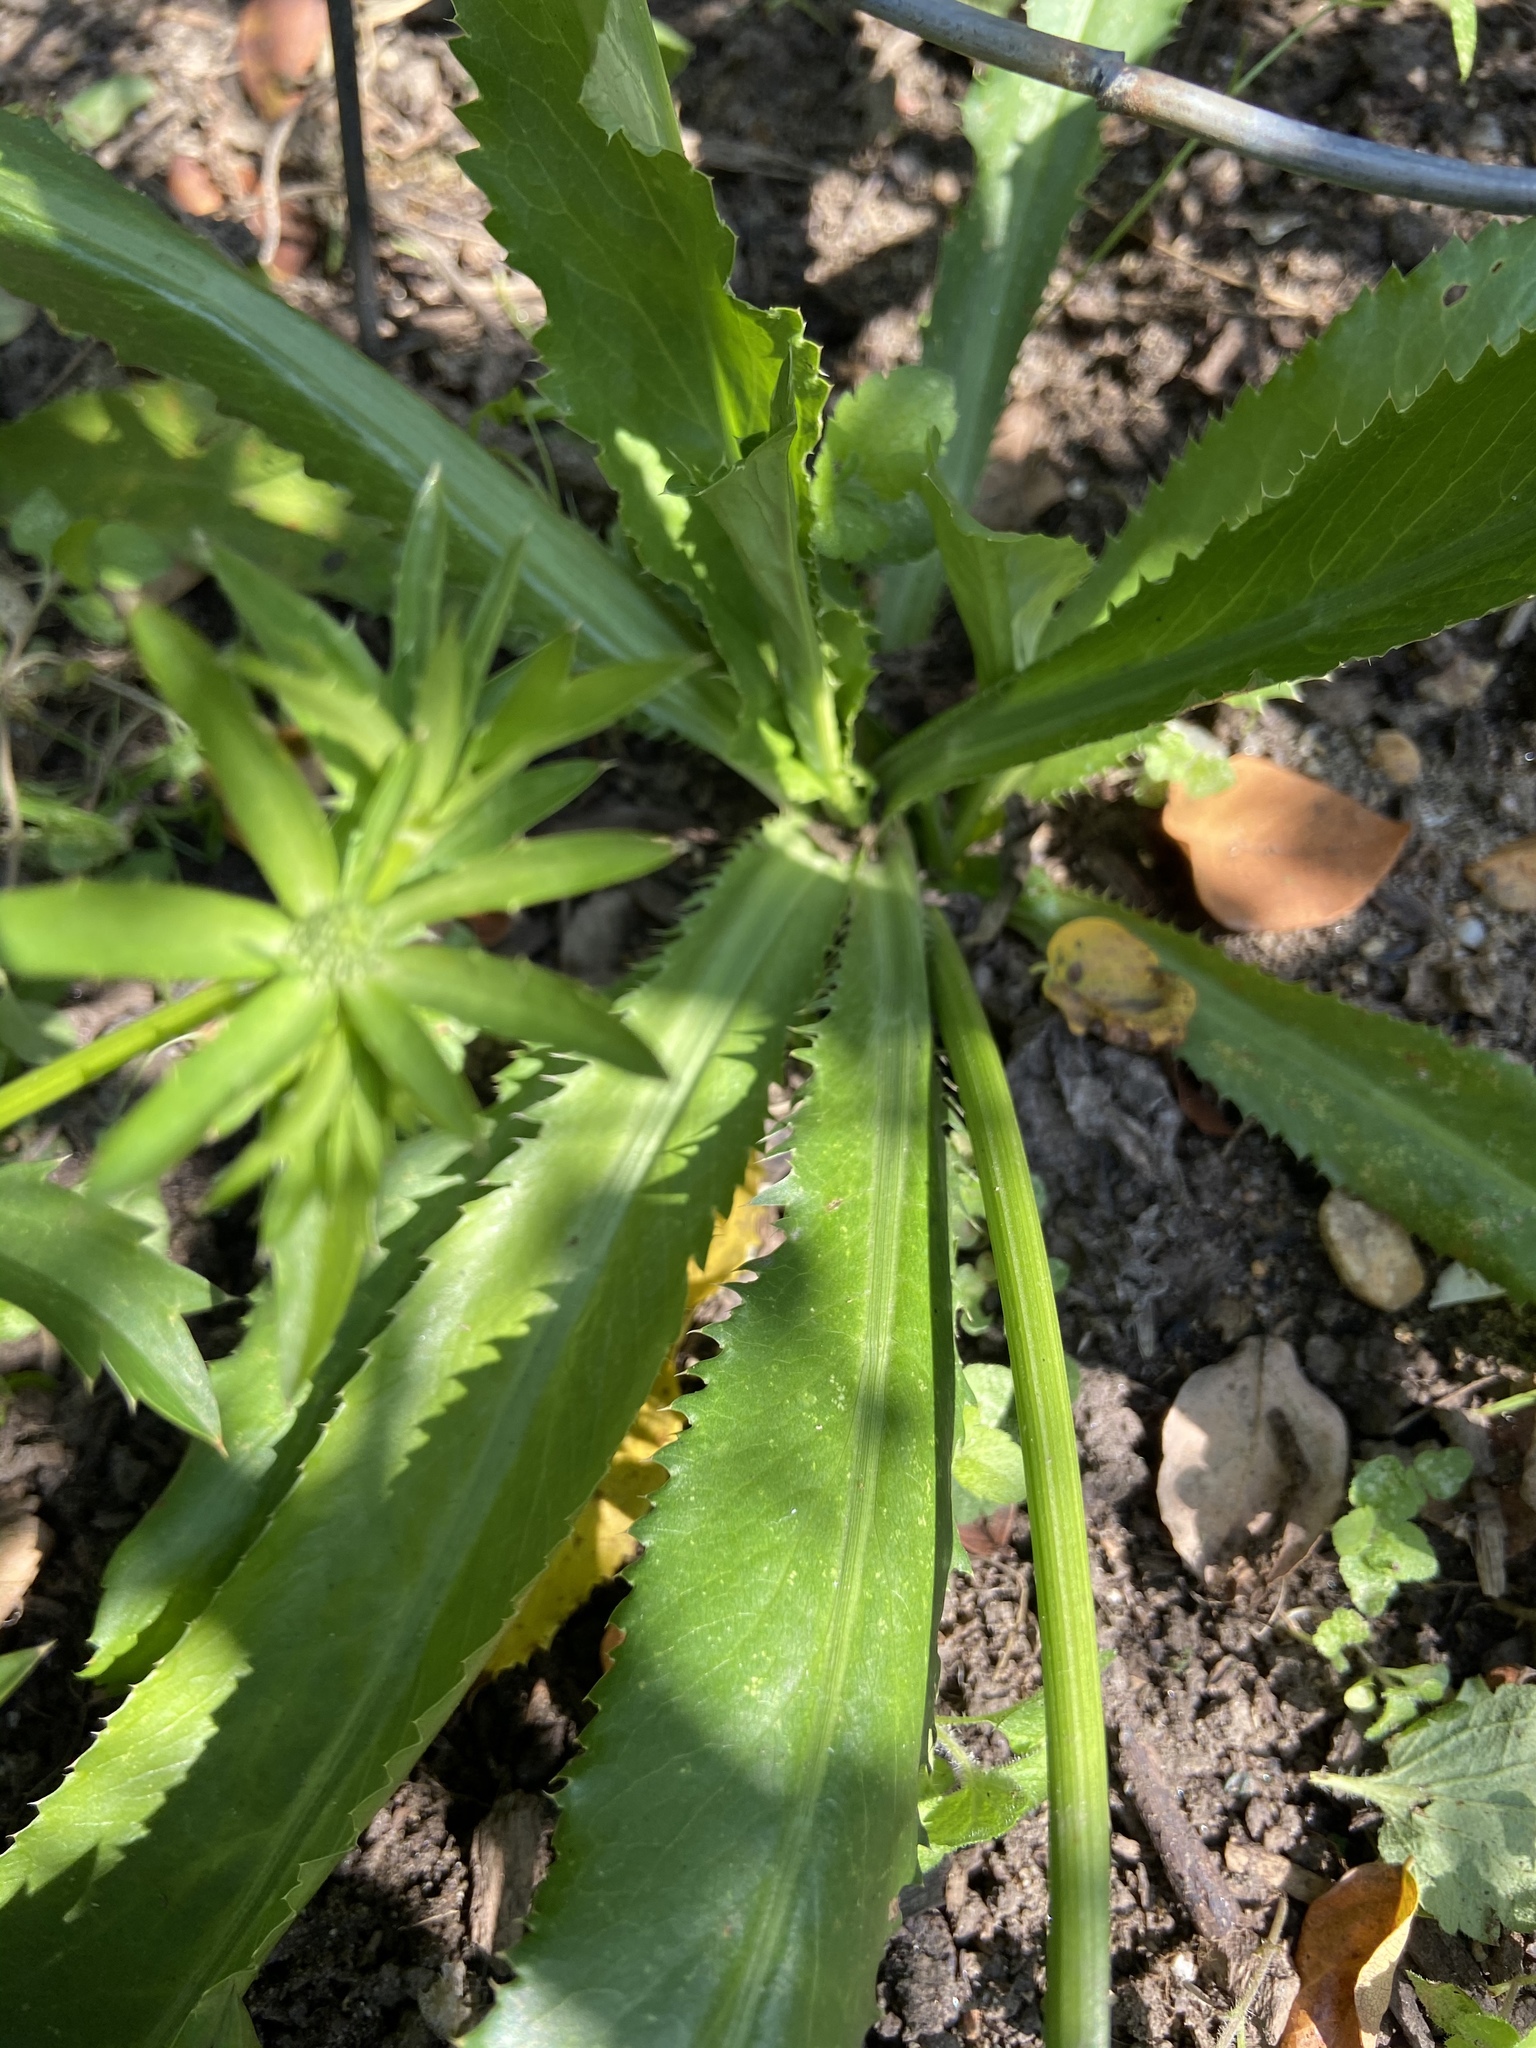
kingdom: Plantae
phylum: Tracheophyta
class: Magnoliopsida
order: Apiales
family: Apiaceae
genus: Eryngium
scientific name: Eryngium foetidum
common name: Fitweed
